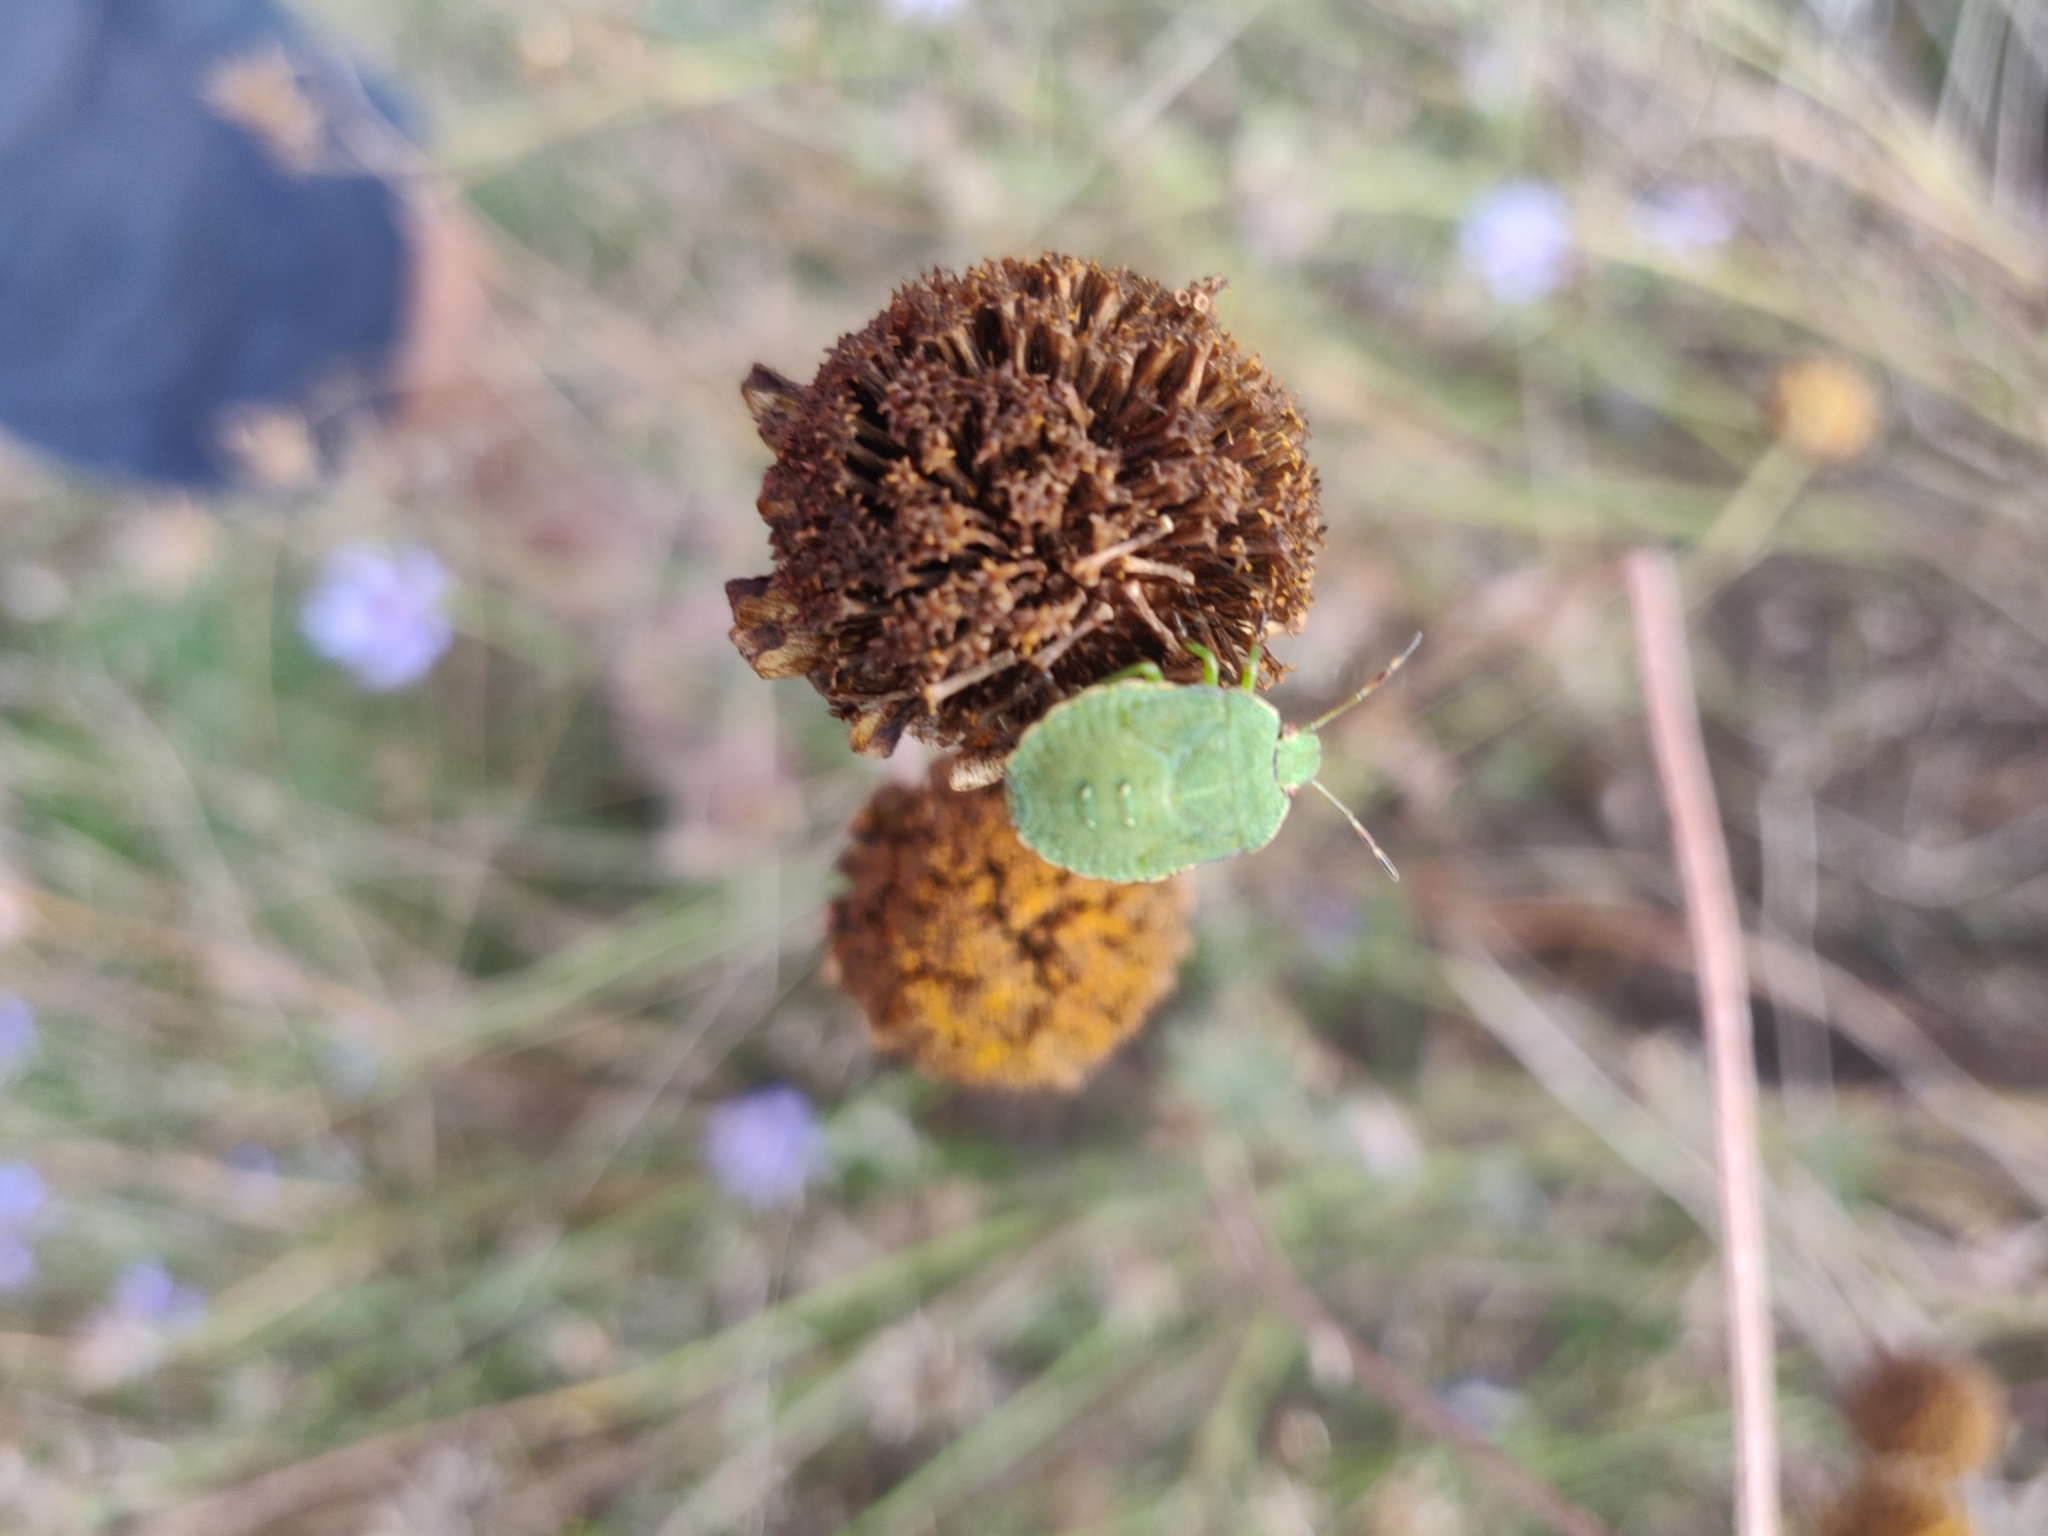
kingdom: Animalia
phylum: Arthropoda
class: Insecta
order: Hemiptera
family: Pentatomidae
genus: Palomena
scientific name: Palomena prasina
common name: Green shieldbug
